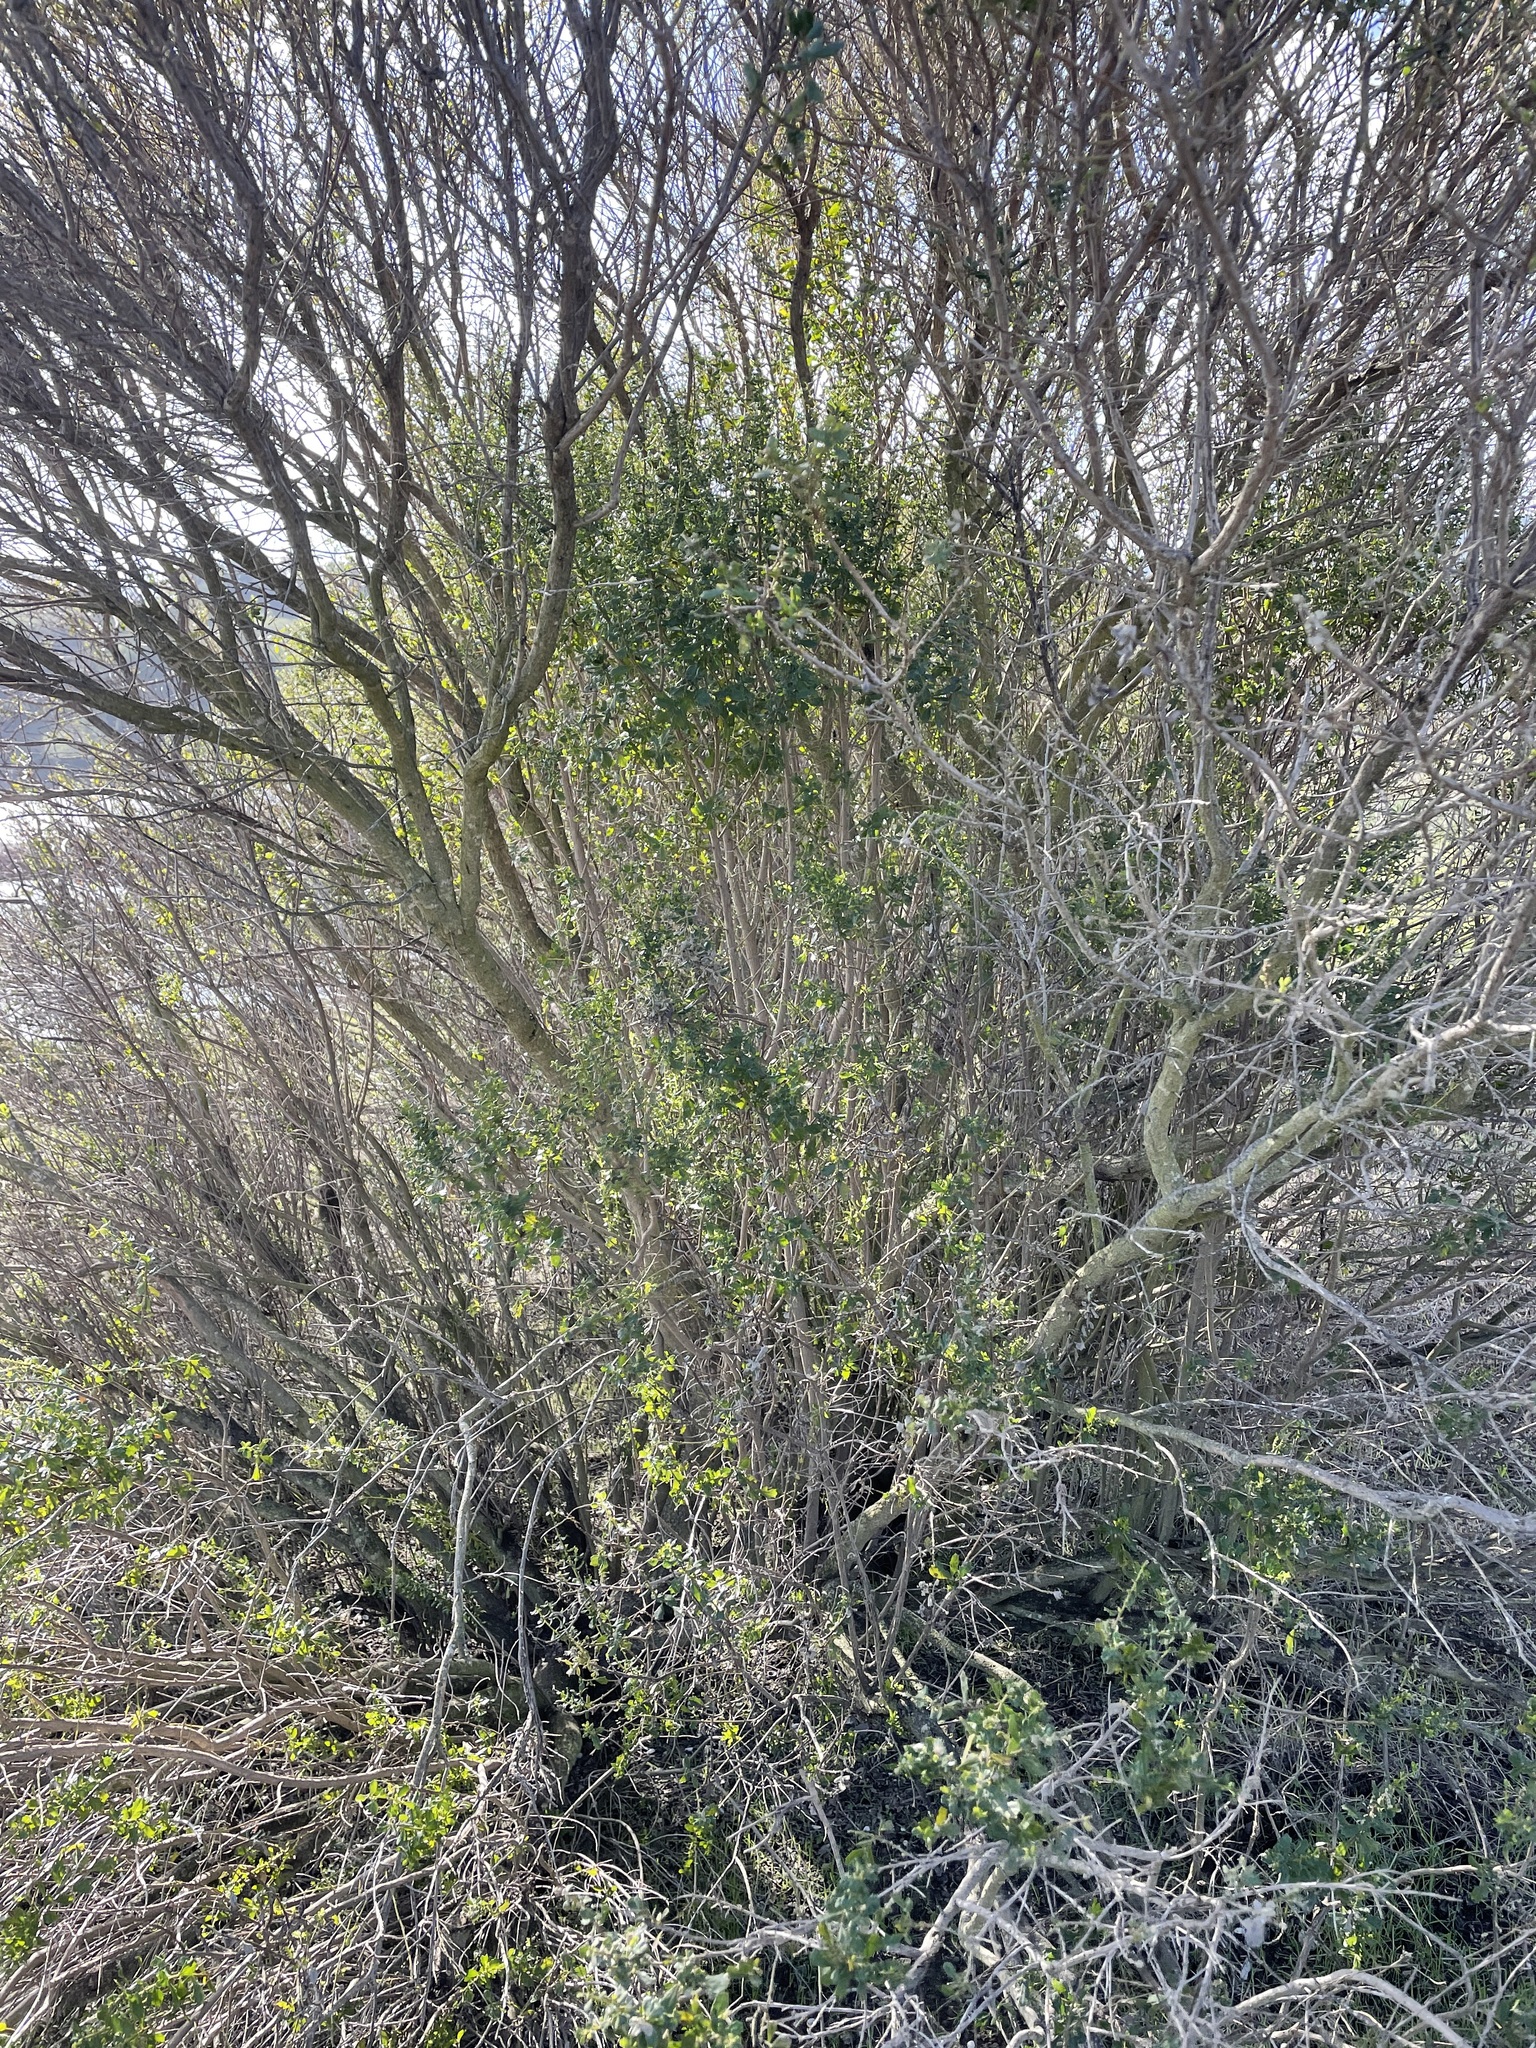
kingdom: Plantae
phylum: Tracheophyta
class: Magnoliopsida
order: Asterales
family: Asteraceae
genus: Baccharis
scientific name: Baccharis pilularis
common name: Coyotebrush
